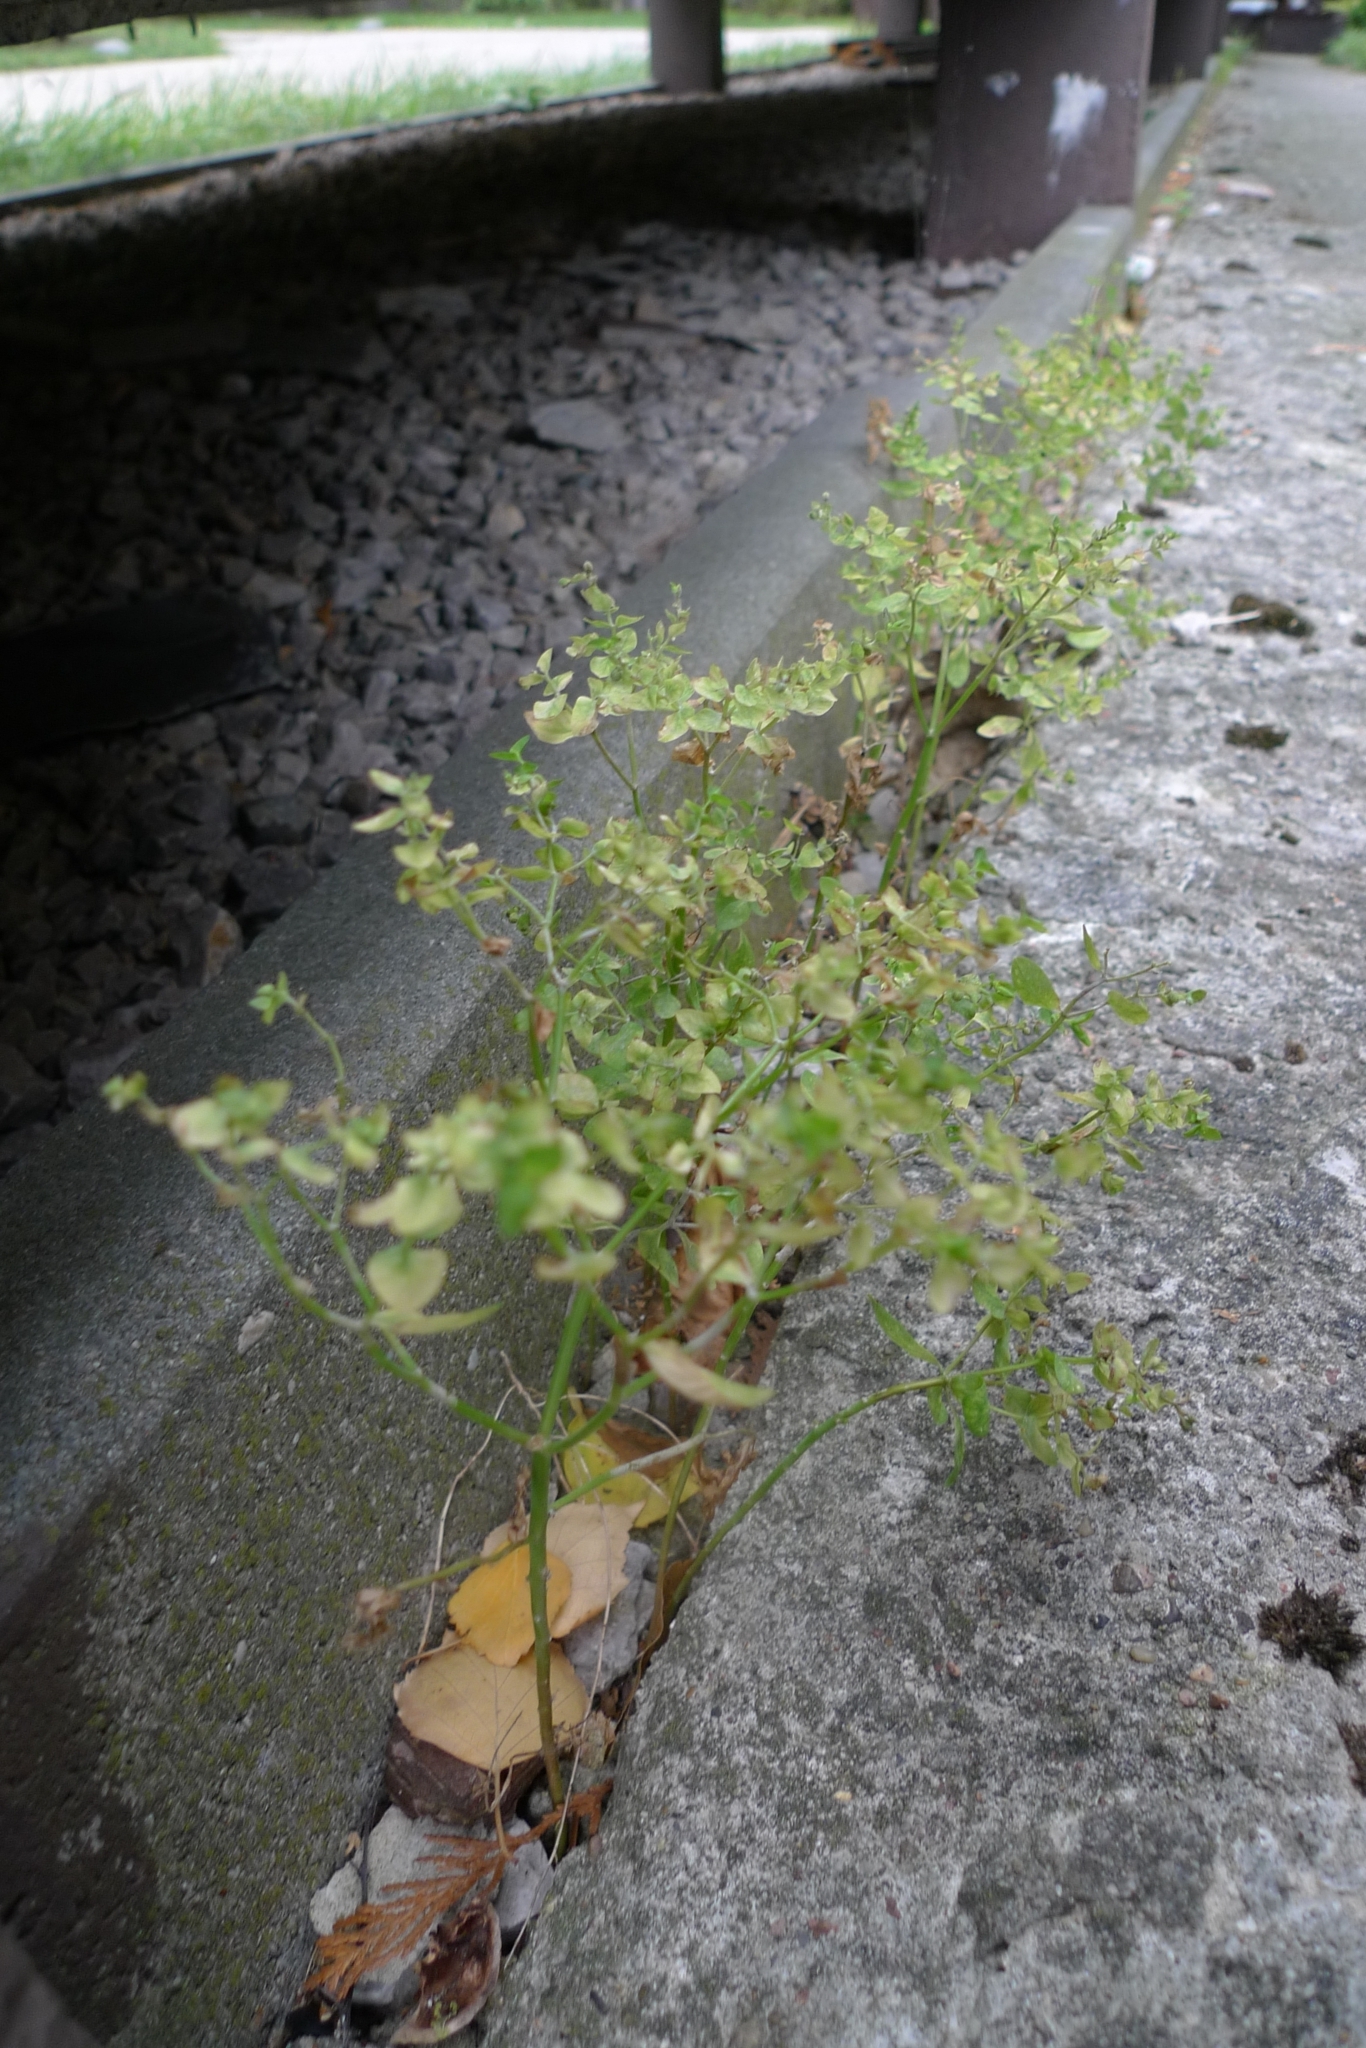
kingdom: Plantae
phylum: Tracheophyta
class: Magnoliopsida
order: Malpighiales
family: Euphorbiaceae
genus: Euphorbia
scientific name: Euphorbia peplus
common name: Petty spurge
